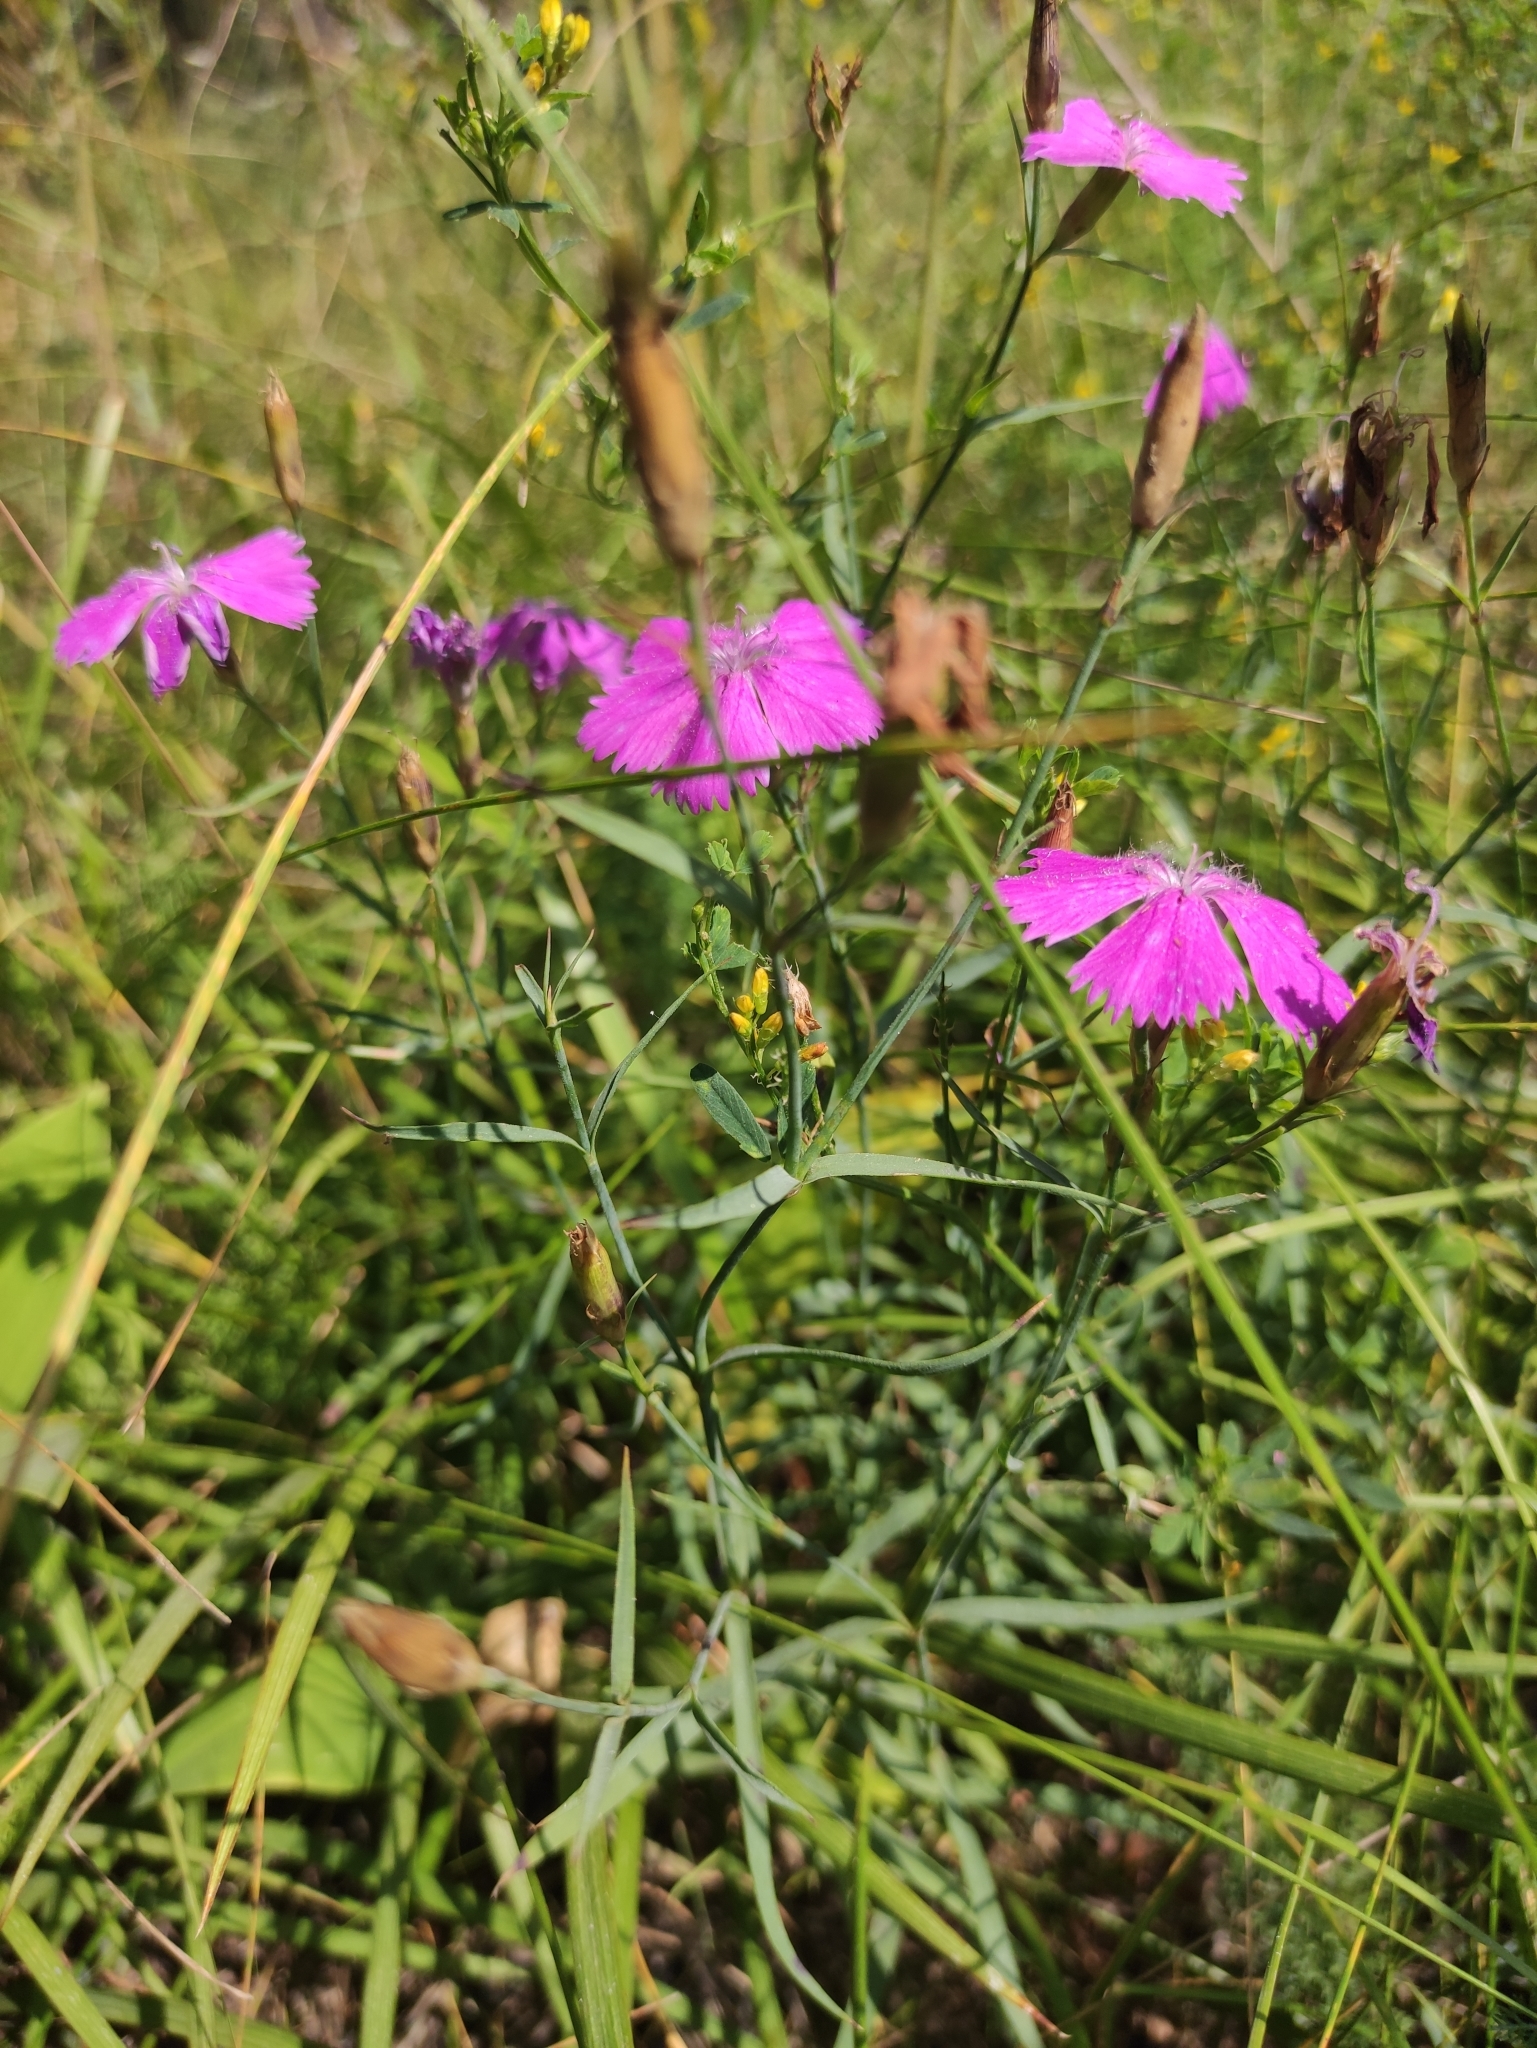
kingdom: Plantae
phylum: Tracheophyta
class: Magnoliopsida
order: Caryophyllales
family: Caryophyllaceae
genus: Dianthus
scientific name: Dianthus chinensis
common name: Rainbow pink
